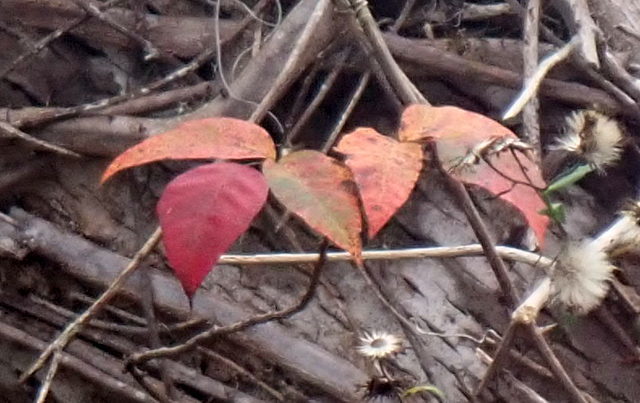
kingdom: Plantae
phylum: Tracheophyta
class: Magnoliopsida
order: Sapindales
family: Anacardiaceae
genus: Toxicodendron
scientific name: Toxicodendron radicans
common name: Poison ivy
